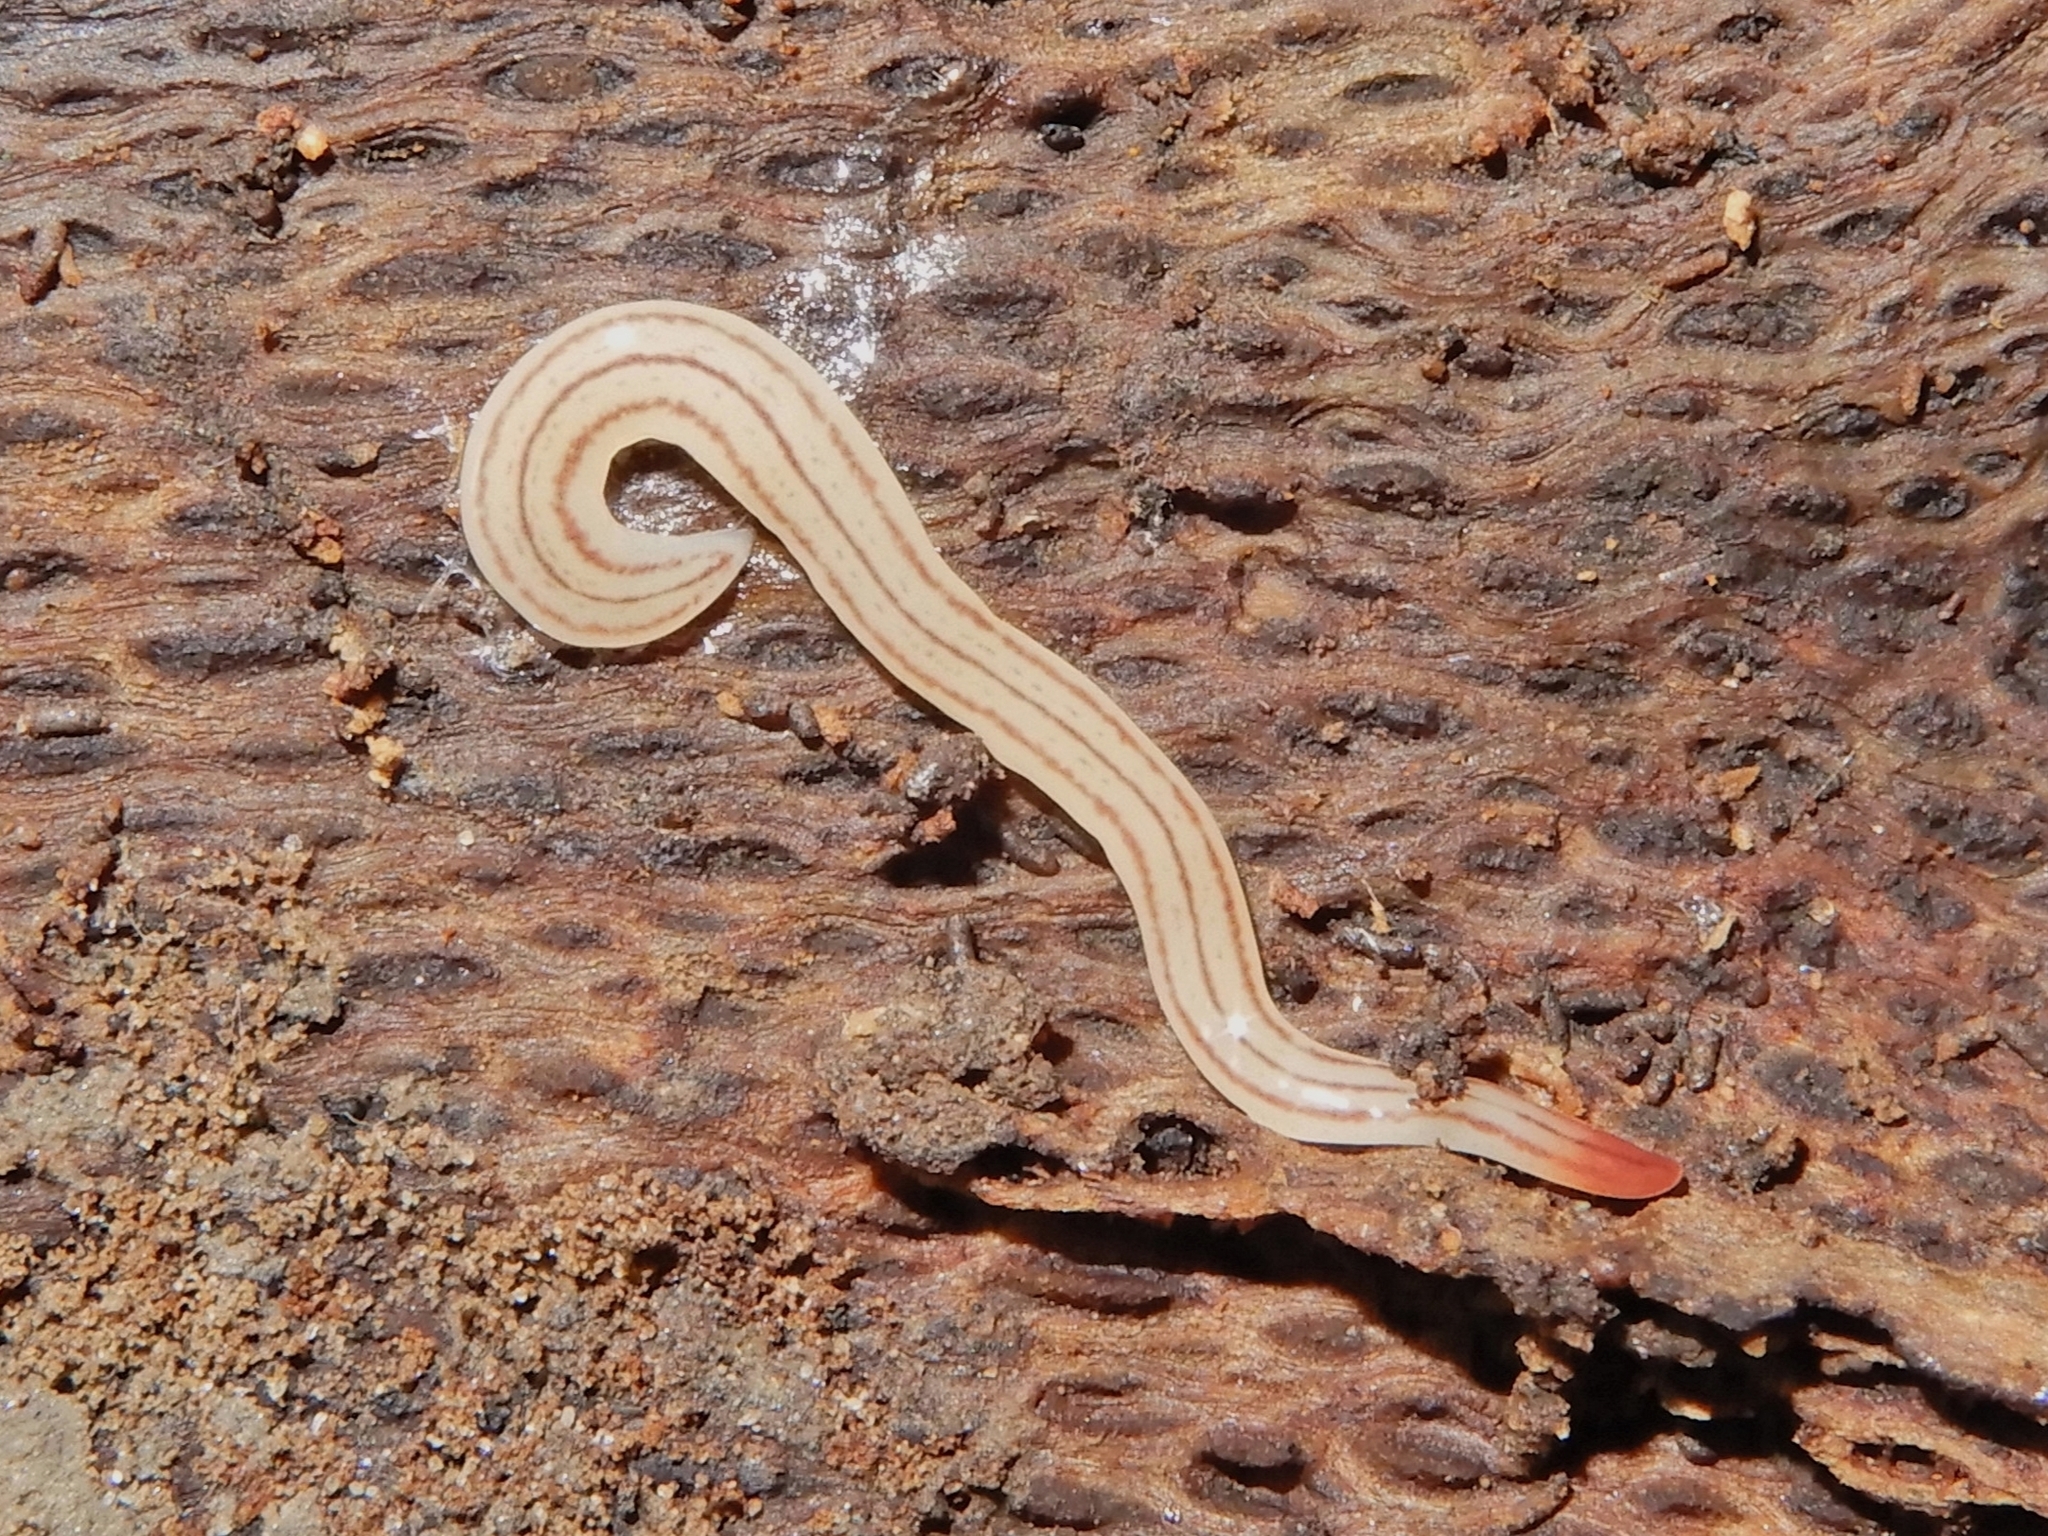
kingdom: Animalia
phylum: Platyhelminthes
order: Tricladida
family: Geoplanidae
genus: Artioposthia
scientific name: Artioposthia howesi
